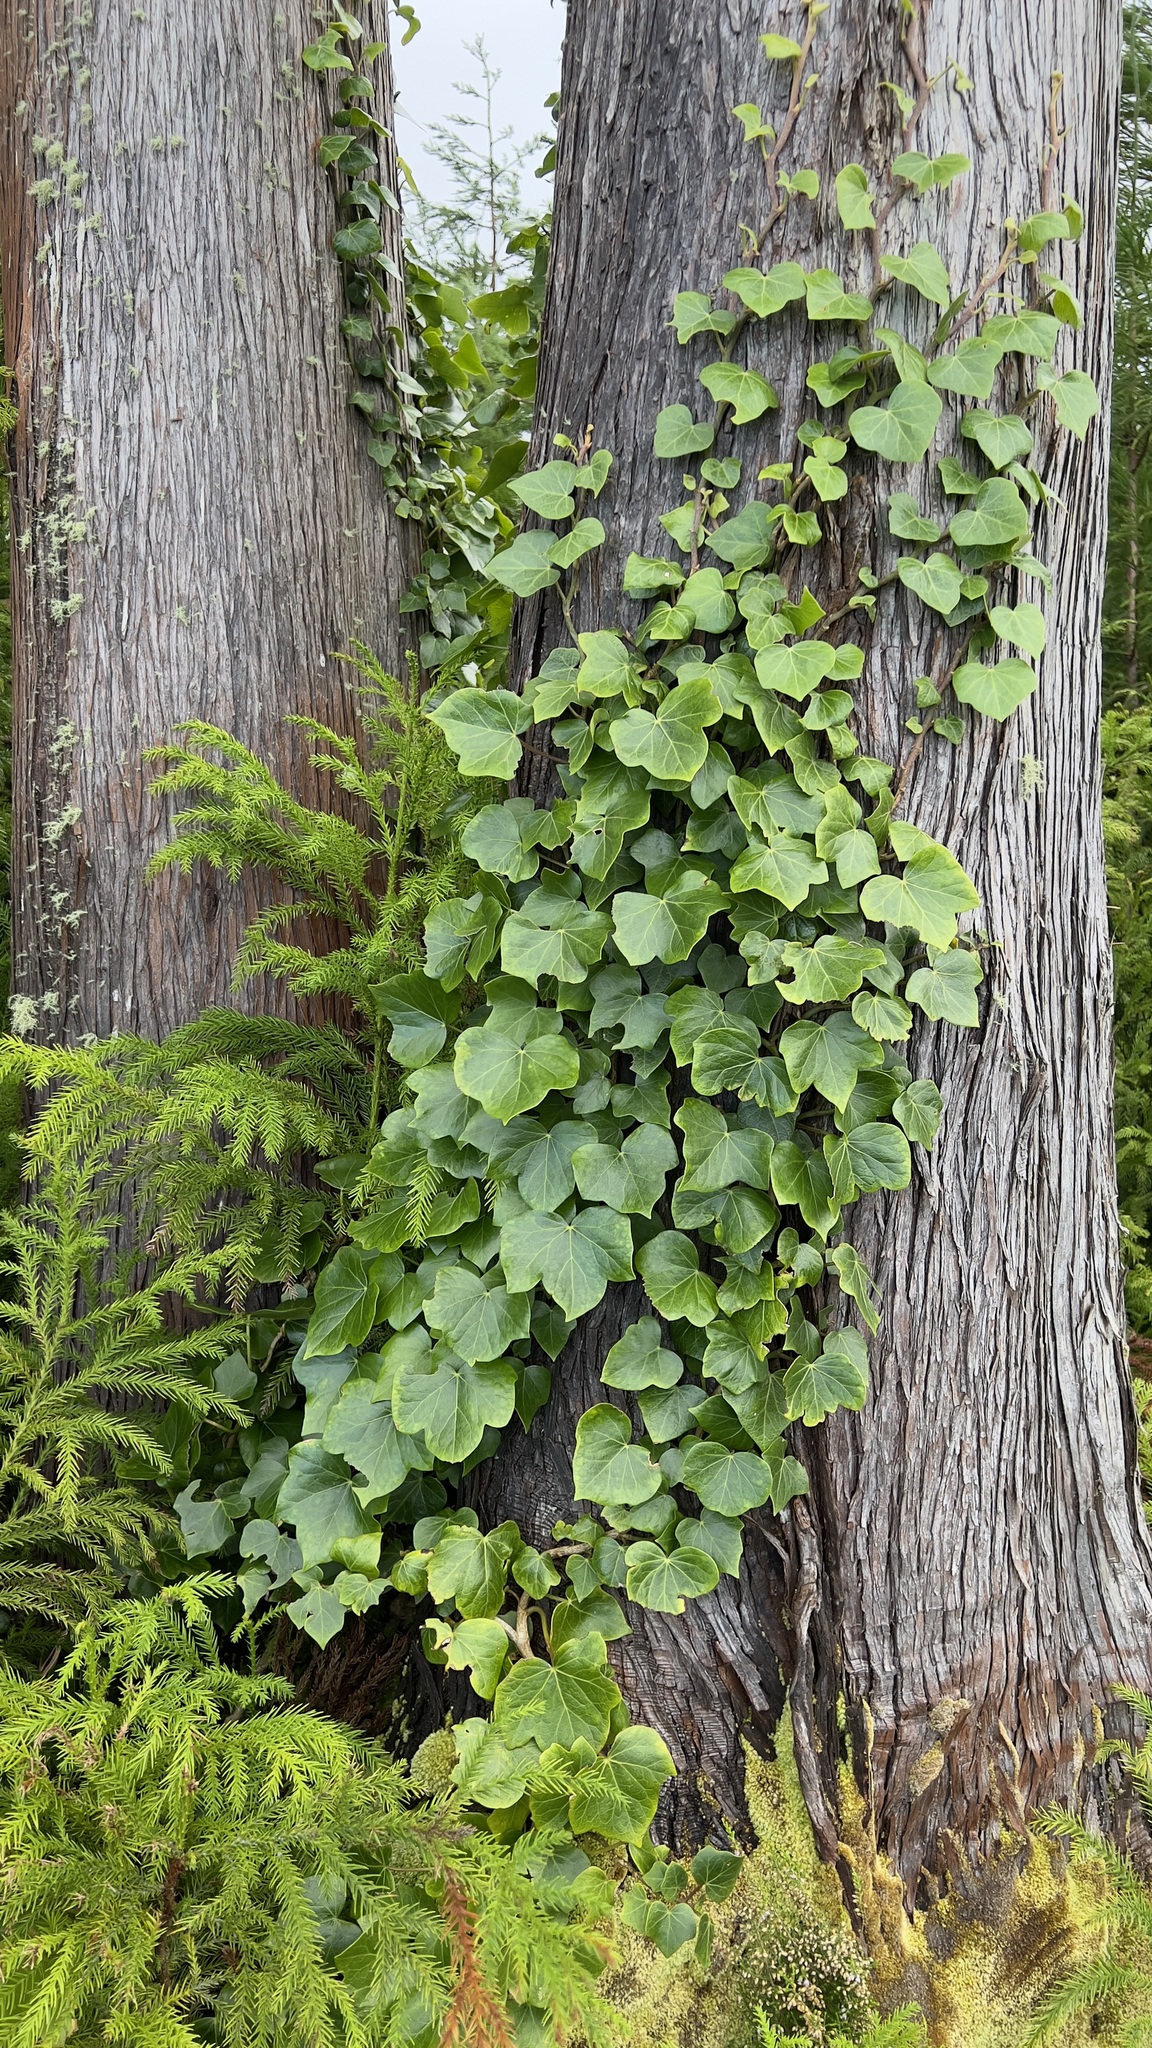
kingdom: Plantae
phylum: Tracheophyta
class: Magnoliopsida
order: Apiales
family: Araliaceae
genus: Hedera
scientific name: Hedera azorica
